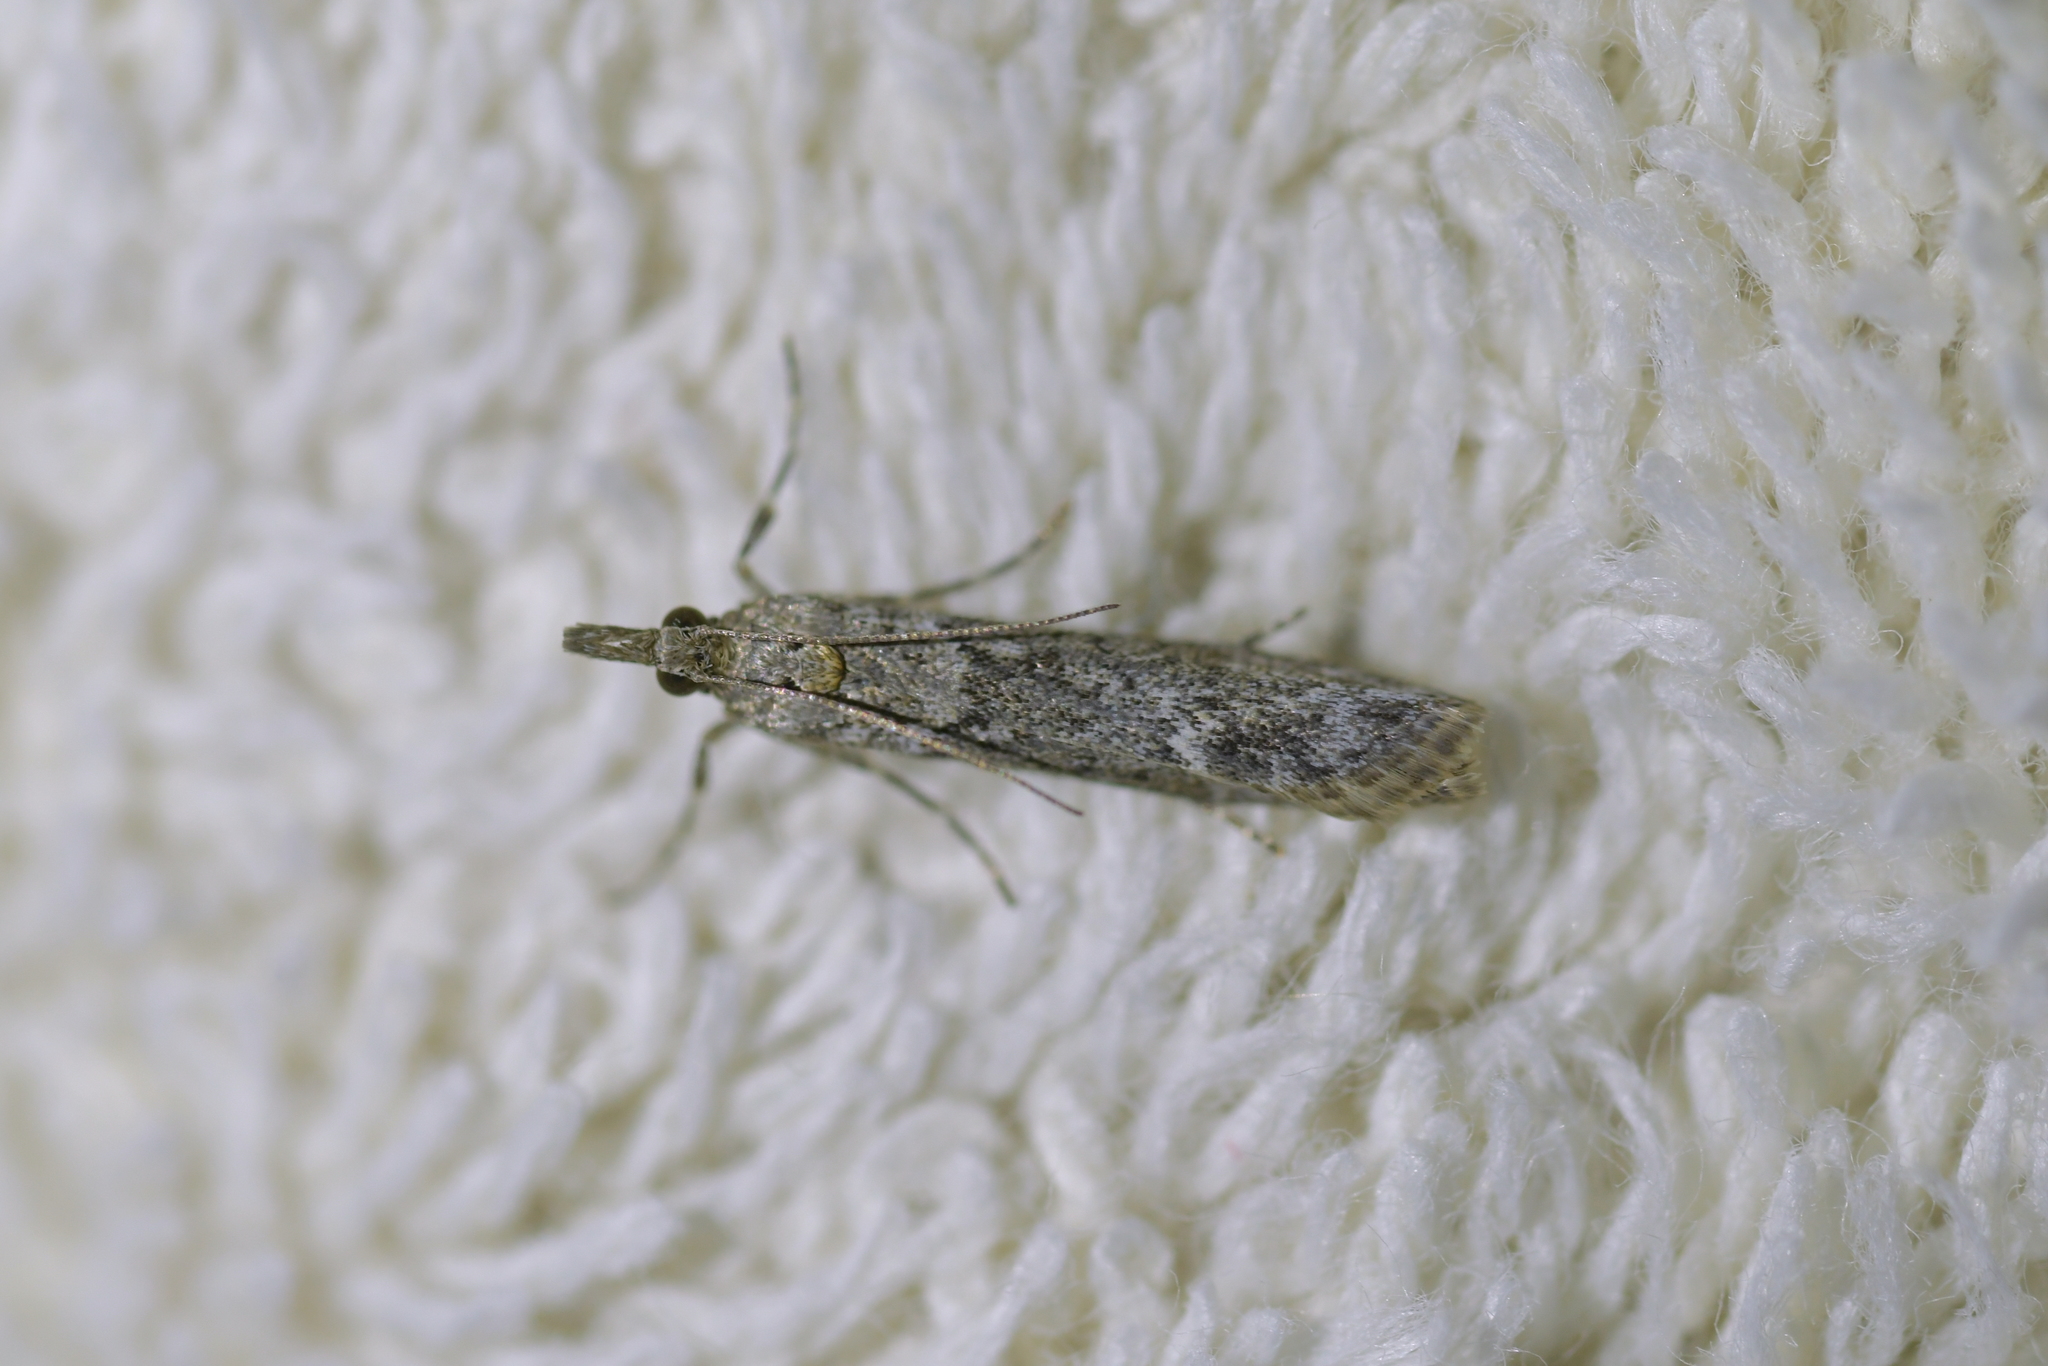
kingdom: Animalia
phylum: Arthropoda
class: Insecta
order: Lepidoptera
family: Crambidae
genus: Eudonia
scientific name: Eudonia leptalea
